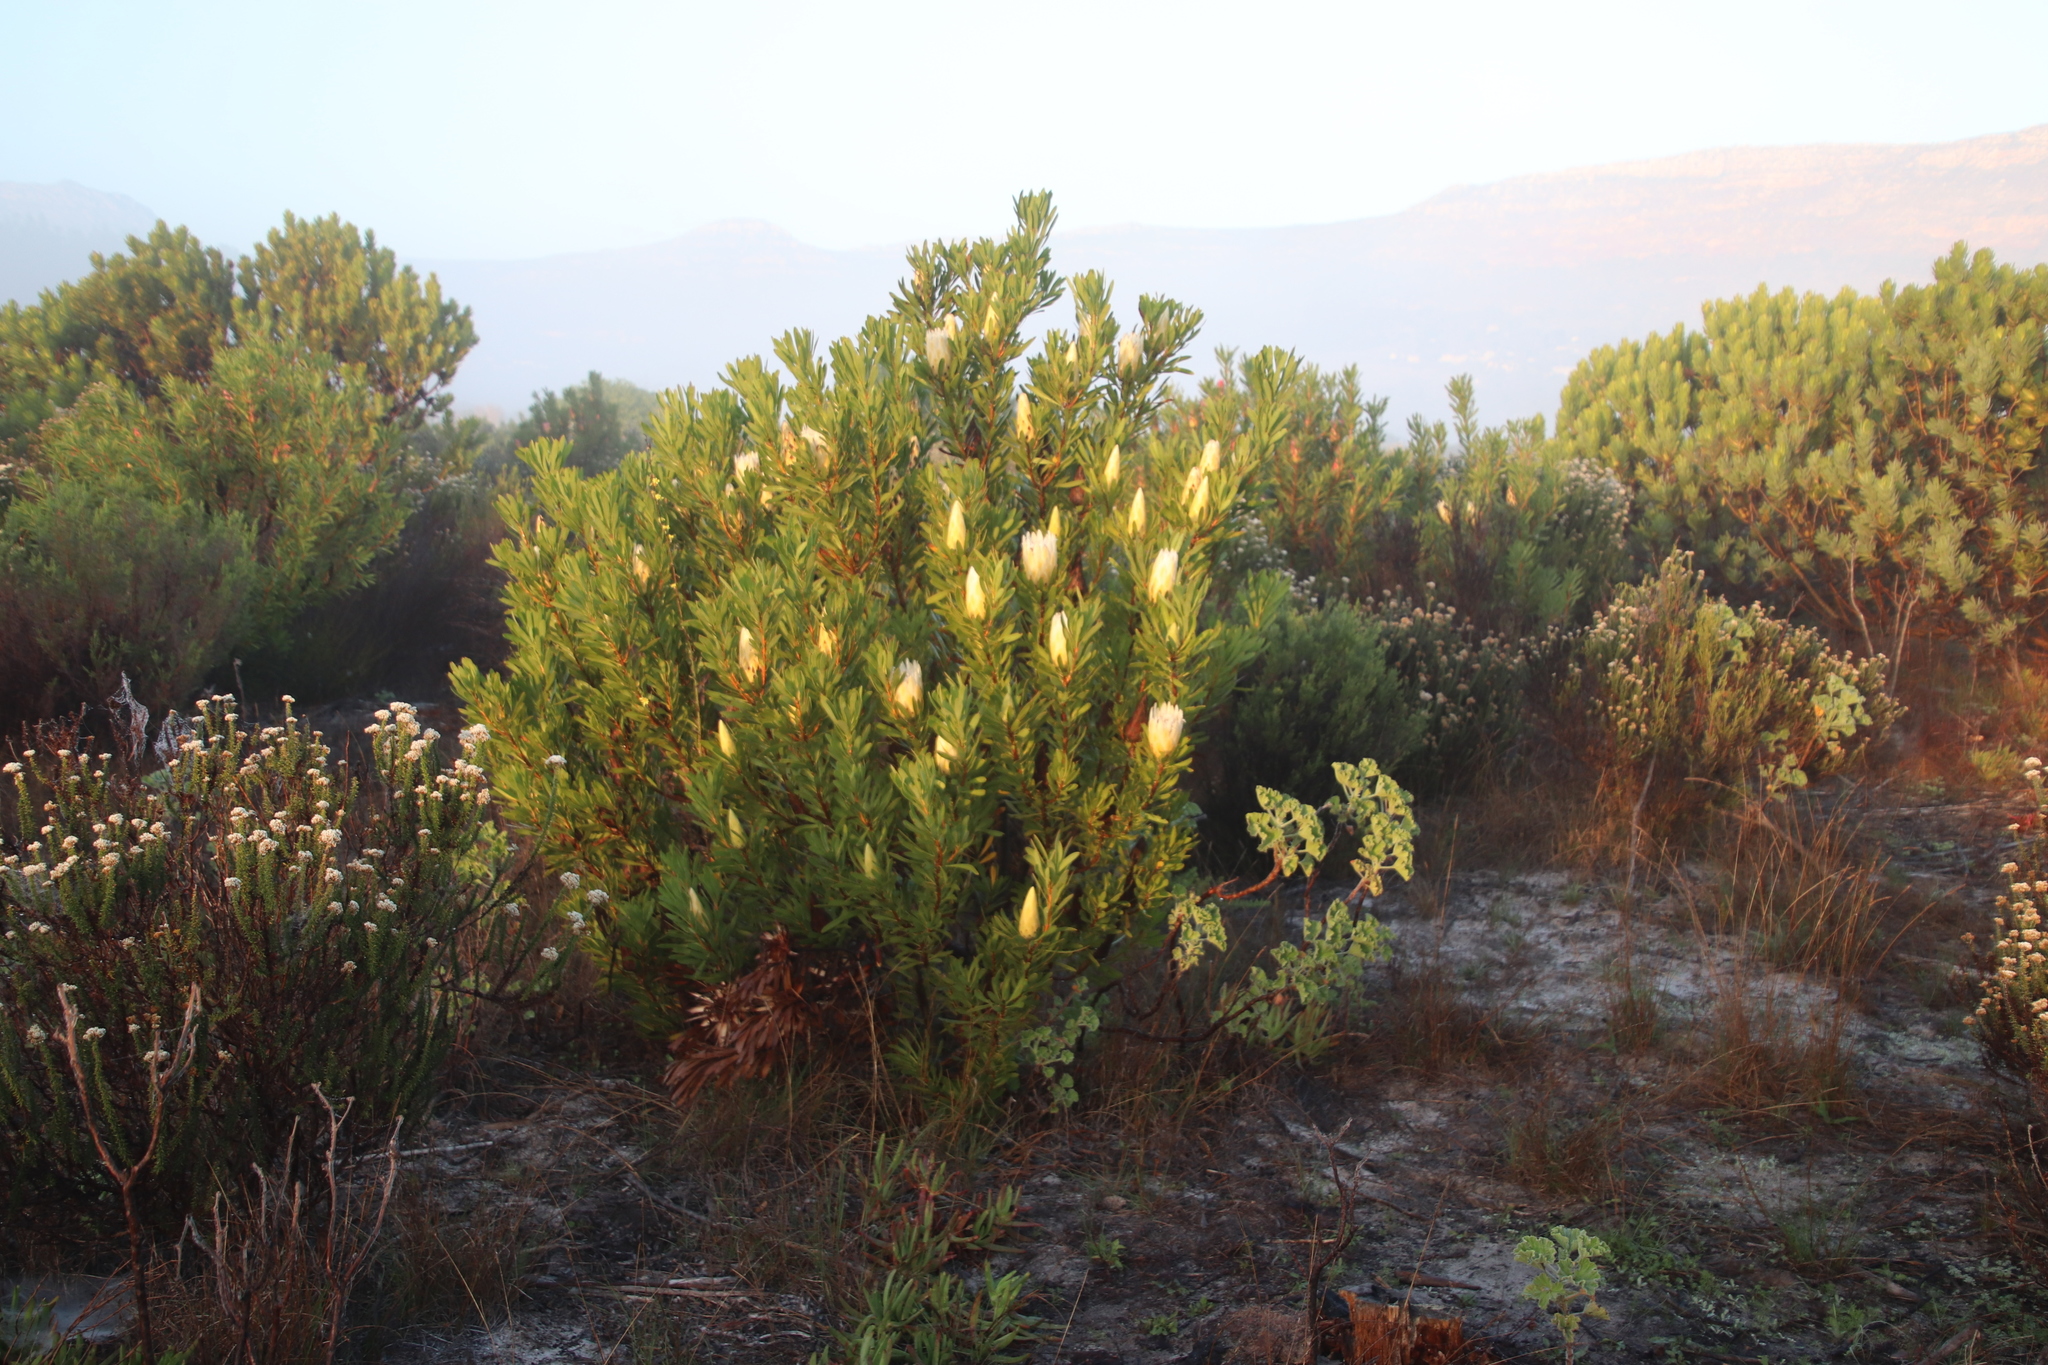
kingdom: Plantae
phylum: Tracheophyta
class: Magnoliopsida
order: Proteales
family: Proteaceae
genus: Protea
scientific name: Protea repens
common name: Sugarbush
